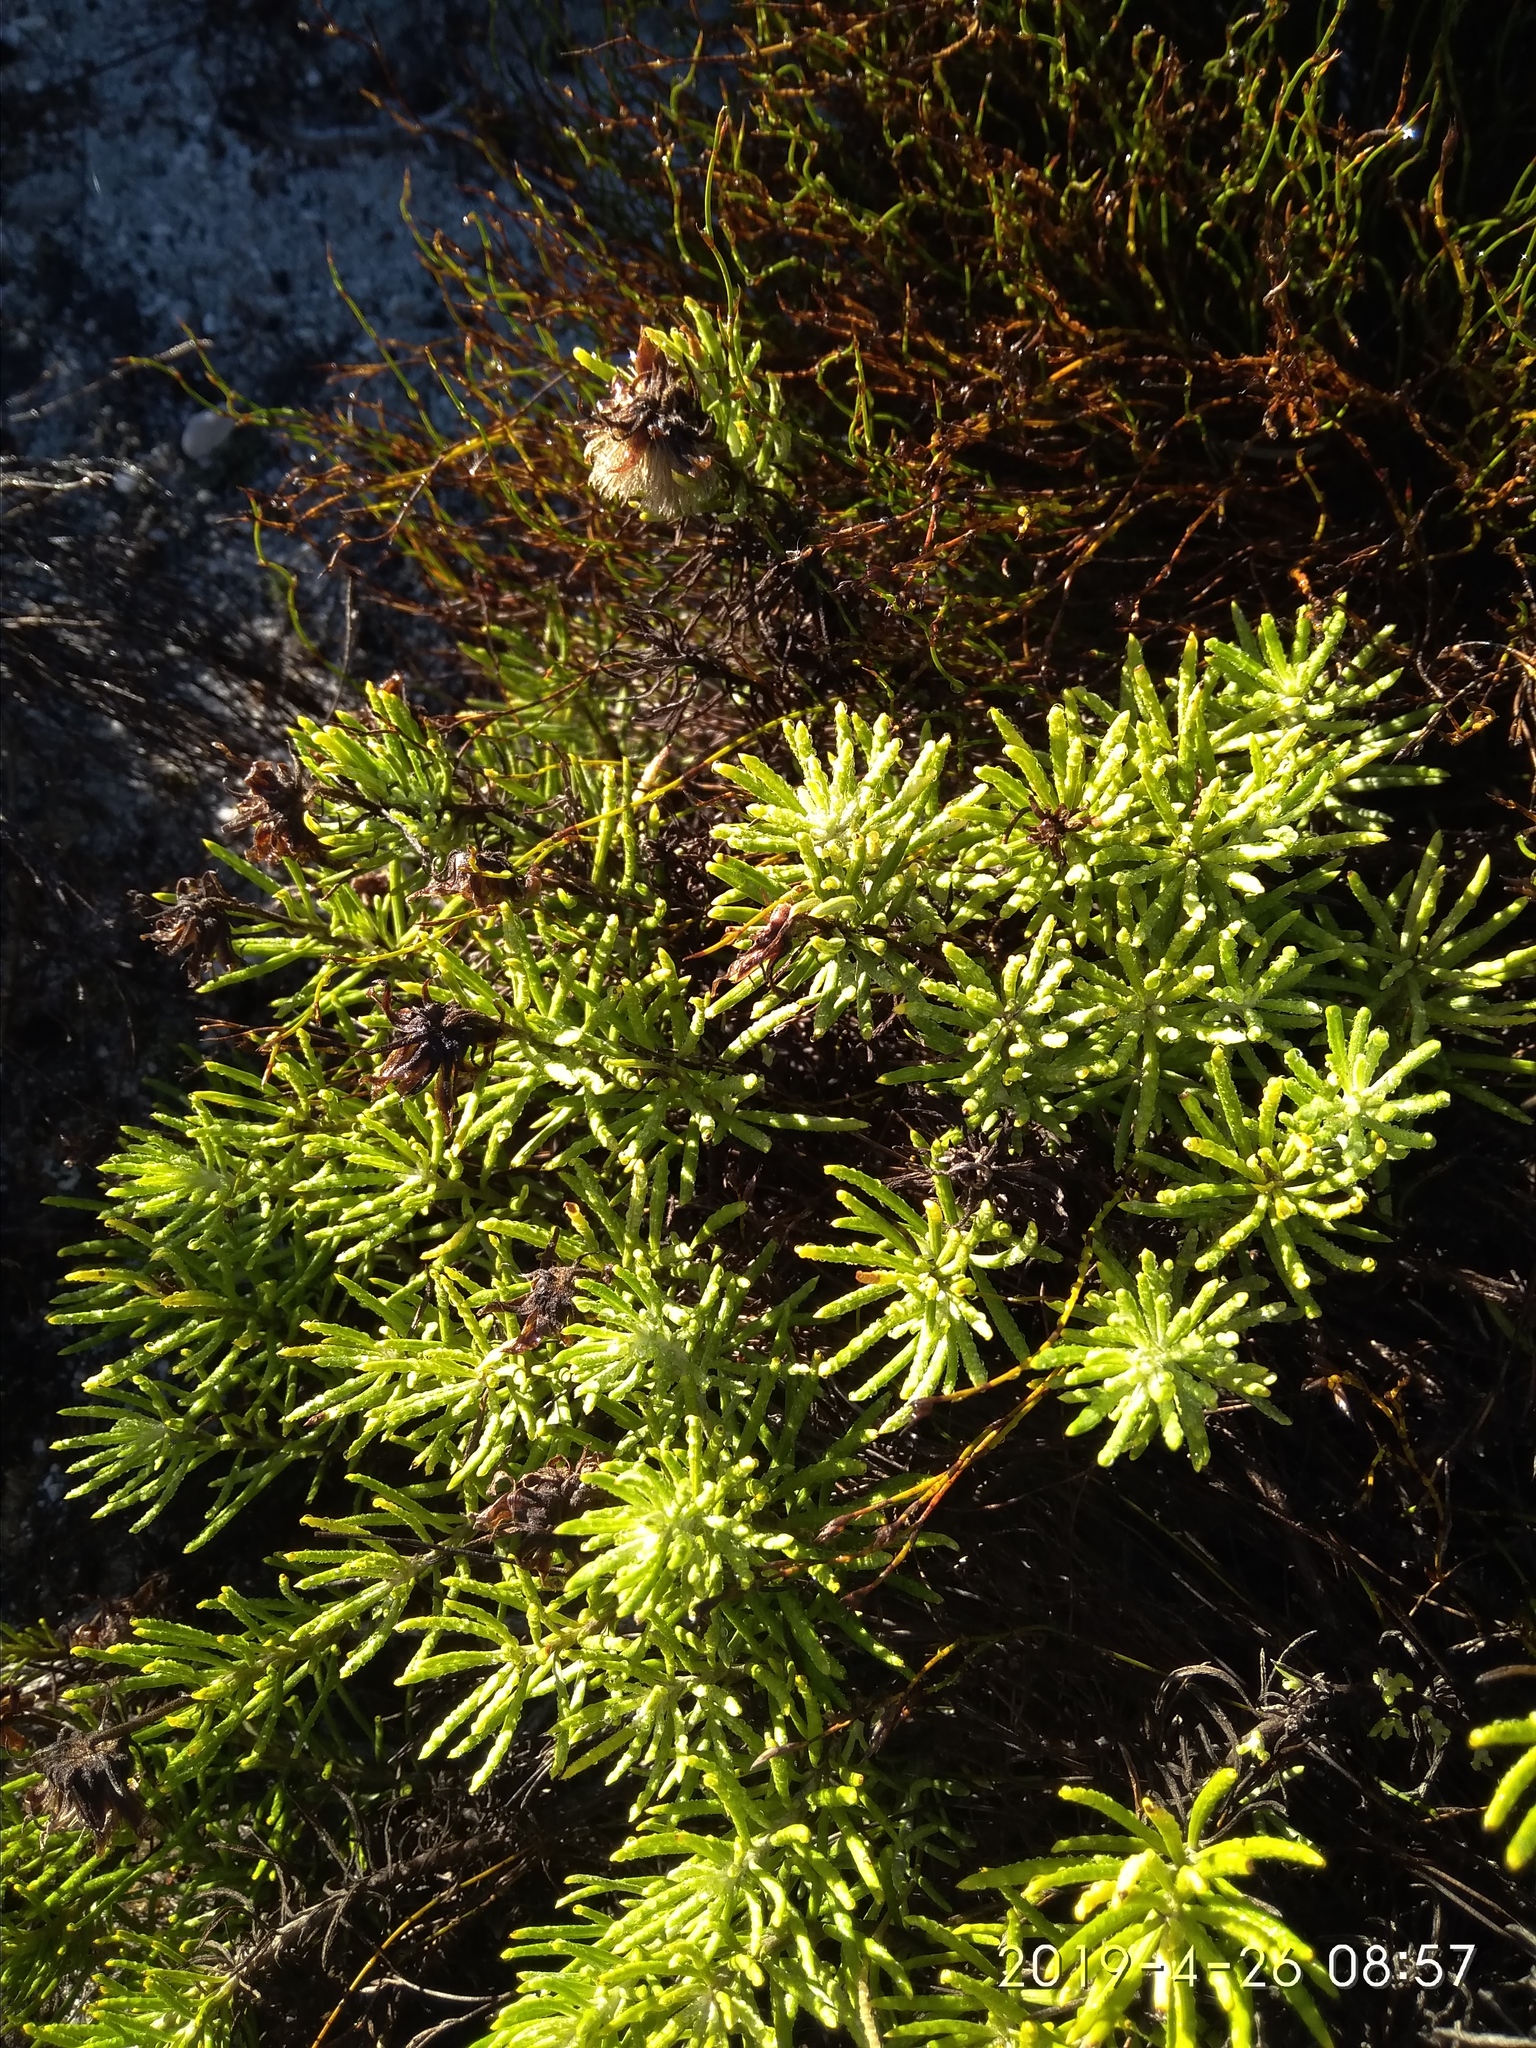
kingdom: Plantae
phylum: Tracheophyta
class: Magnoliopsida
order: Asterales
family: Asteraceae
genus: Heterolepis
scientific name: Heterolepis aliena
